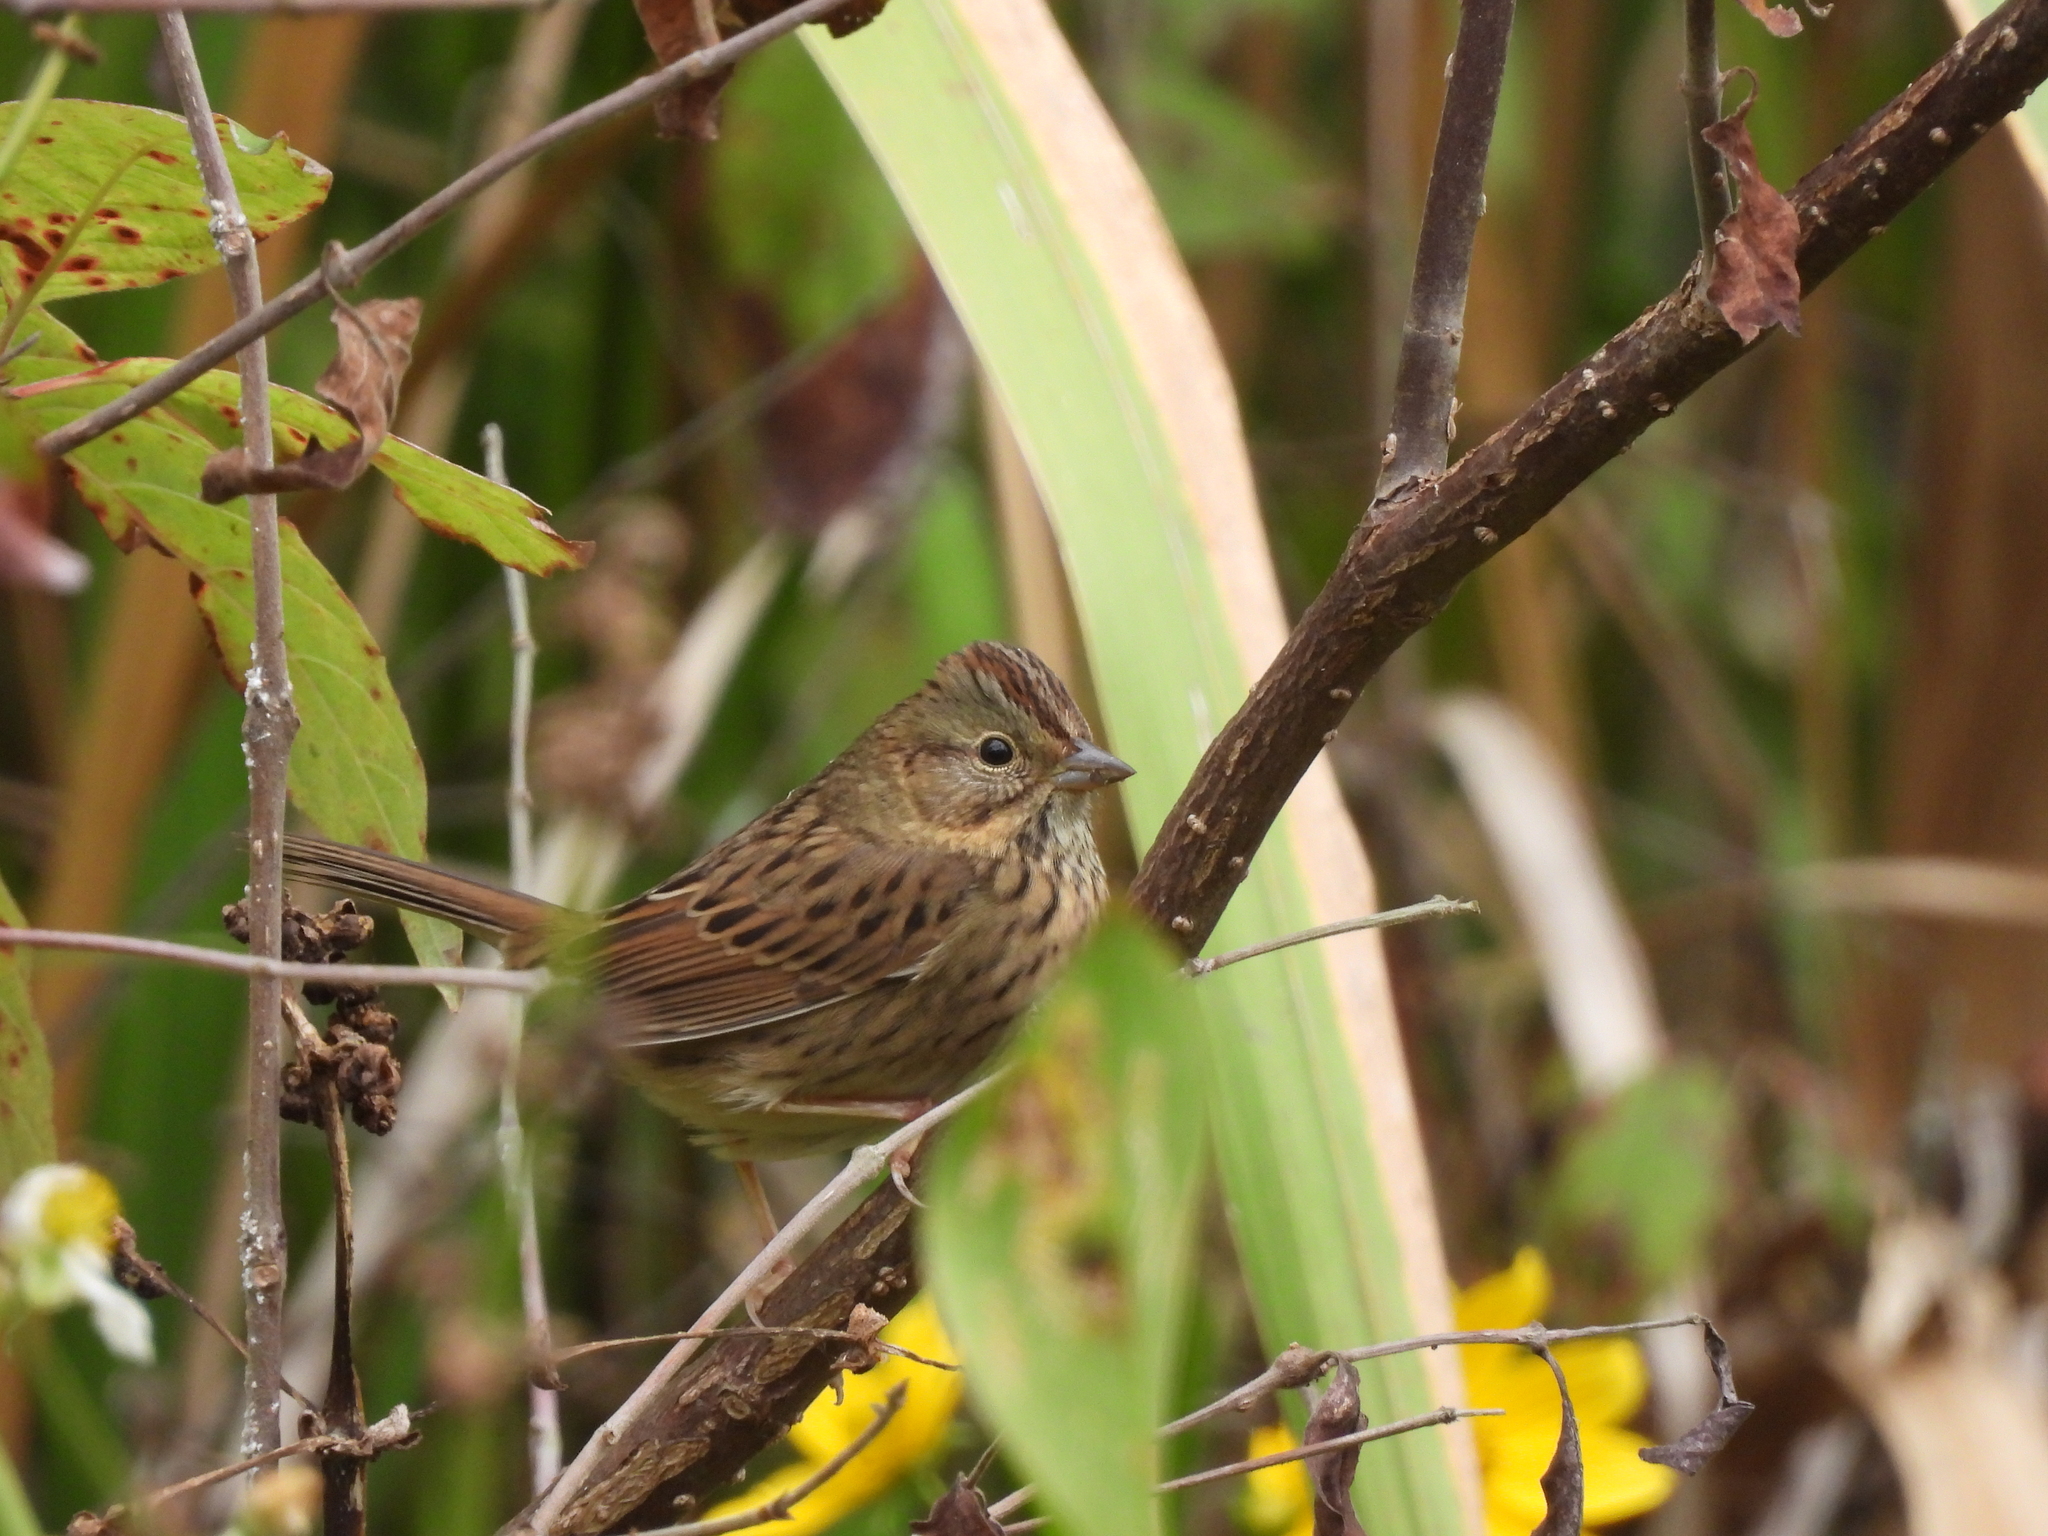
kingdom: Animalia
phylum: Chordata
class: Aves
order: Passeriformes
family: Passerellidae
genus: Melospiza
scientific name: Melospiza lincolnii
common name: Lincoln's sparrow
